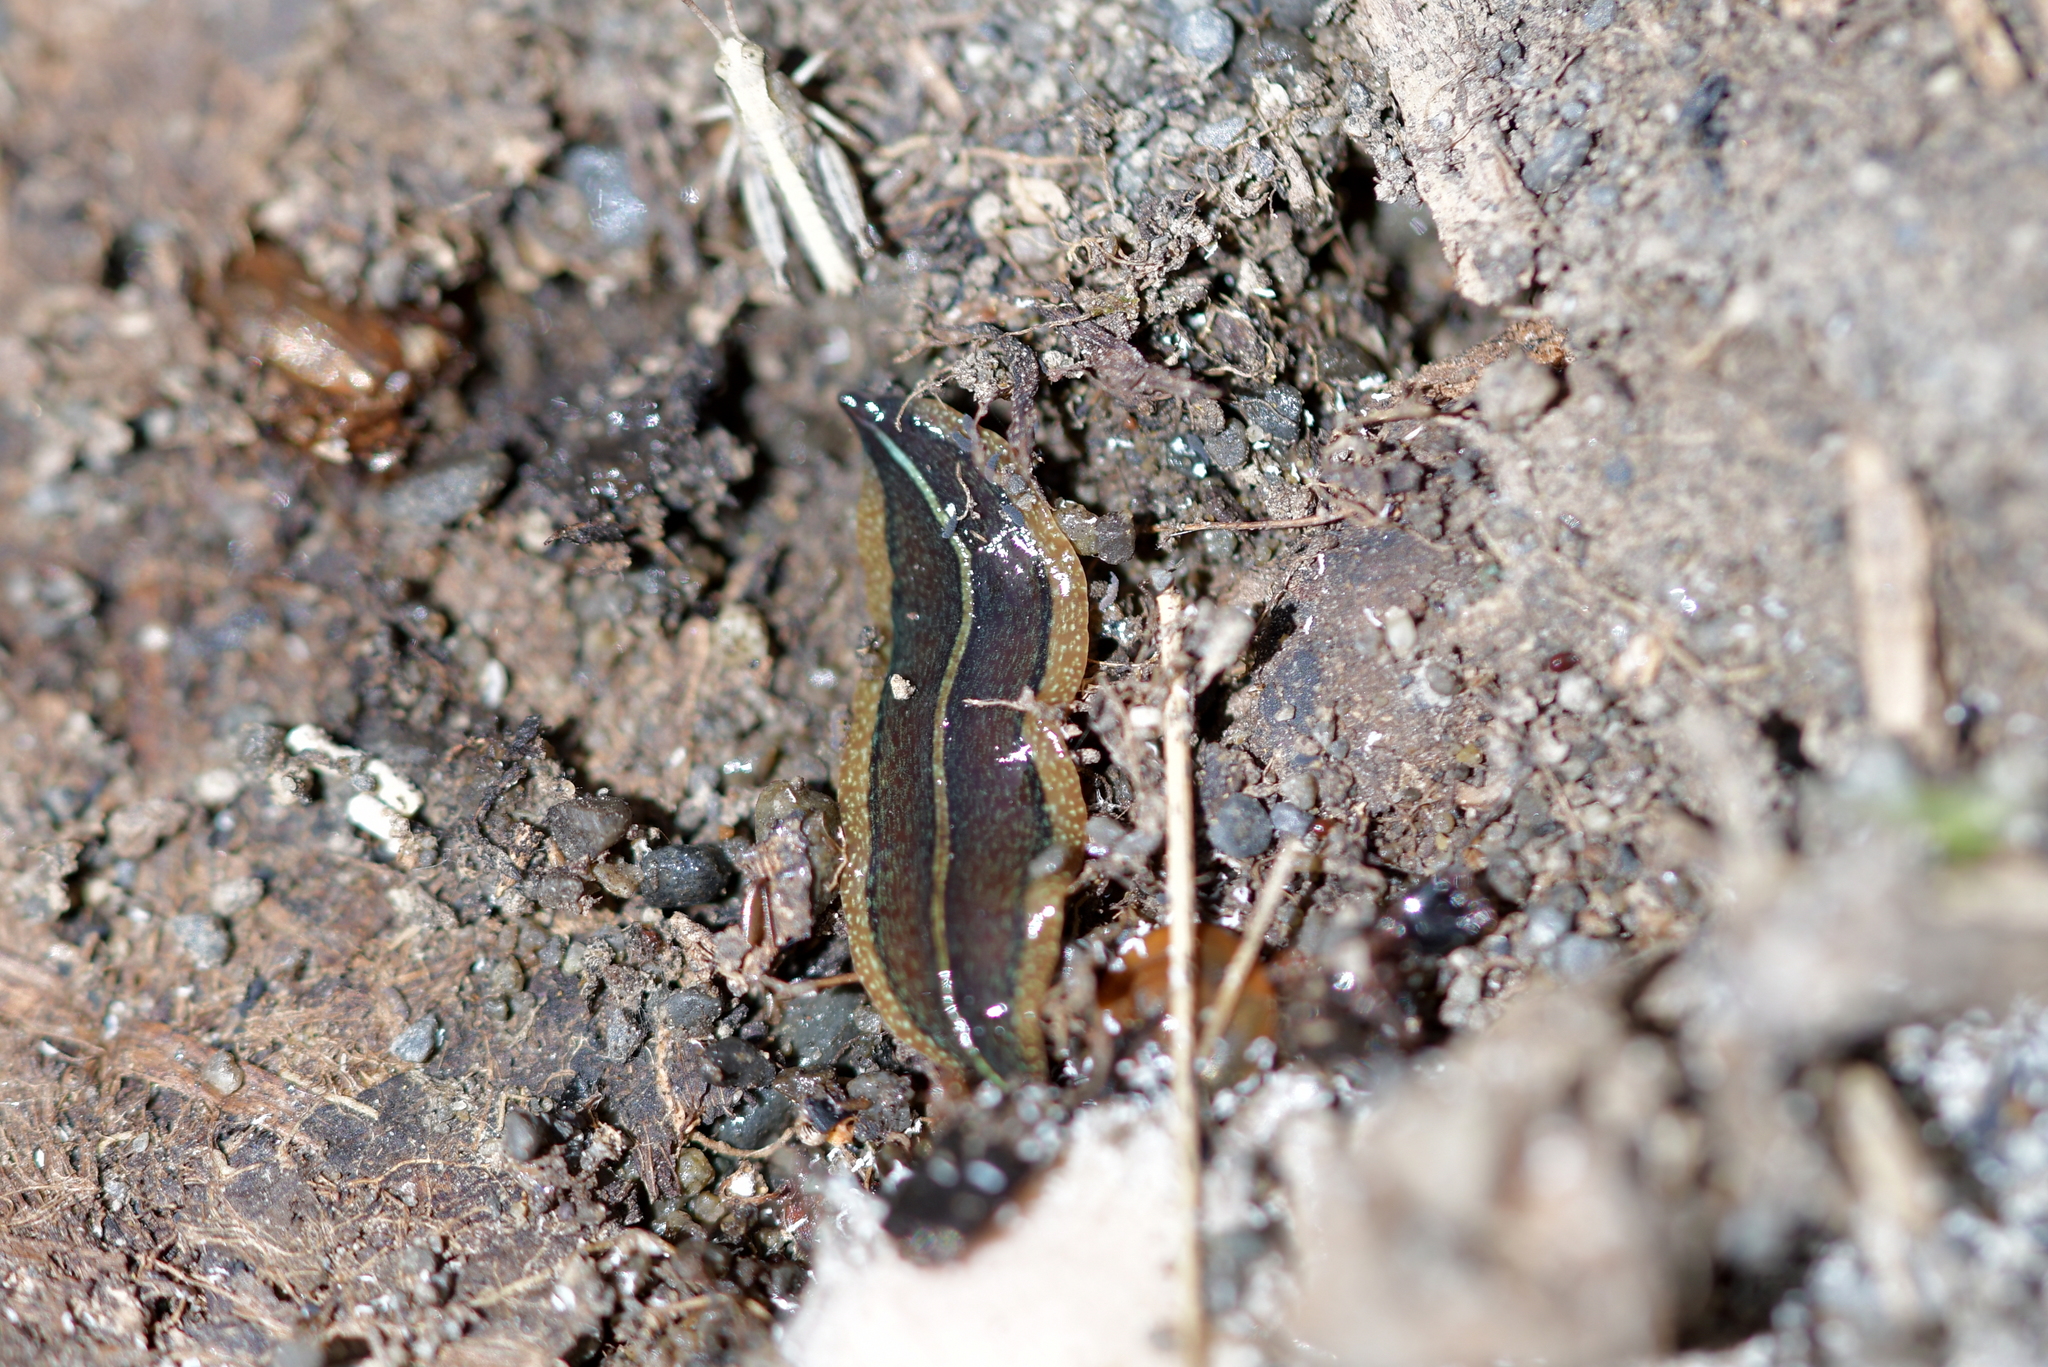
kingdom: Animalia
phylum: Platyhelminthes
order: Tricladida
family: Geoplanidae
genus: Newzealandia
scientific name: Newzealandia graffii
